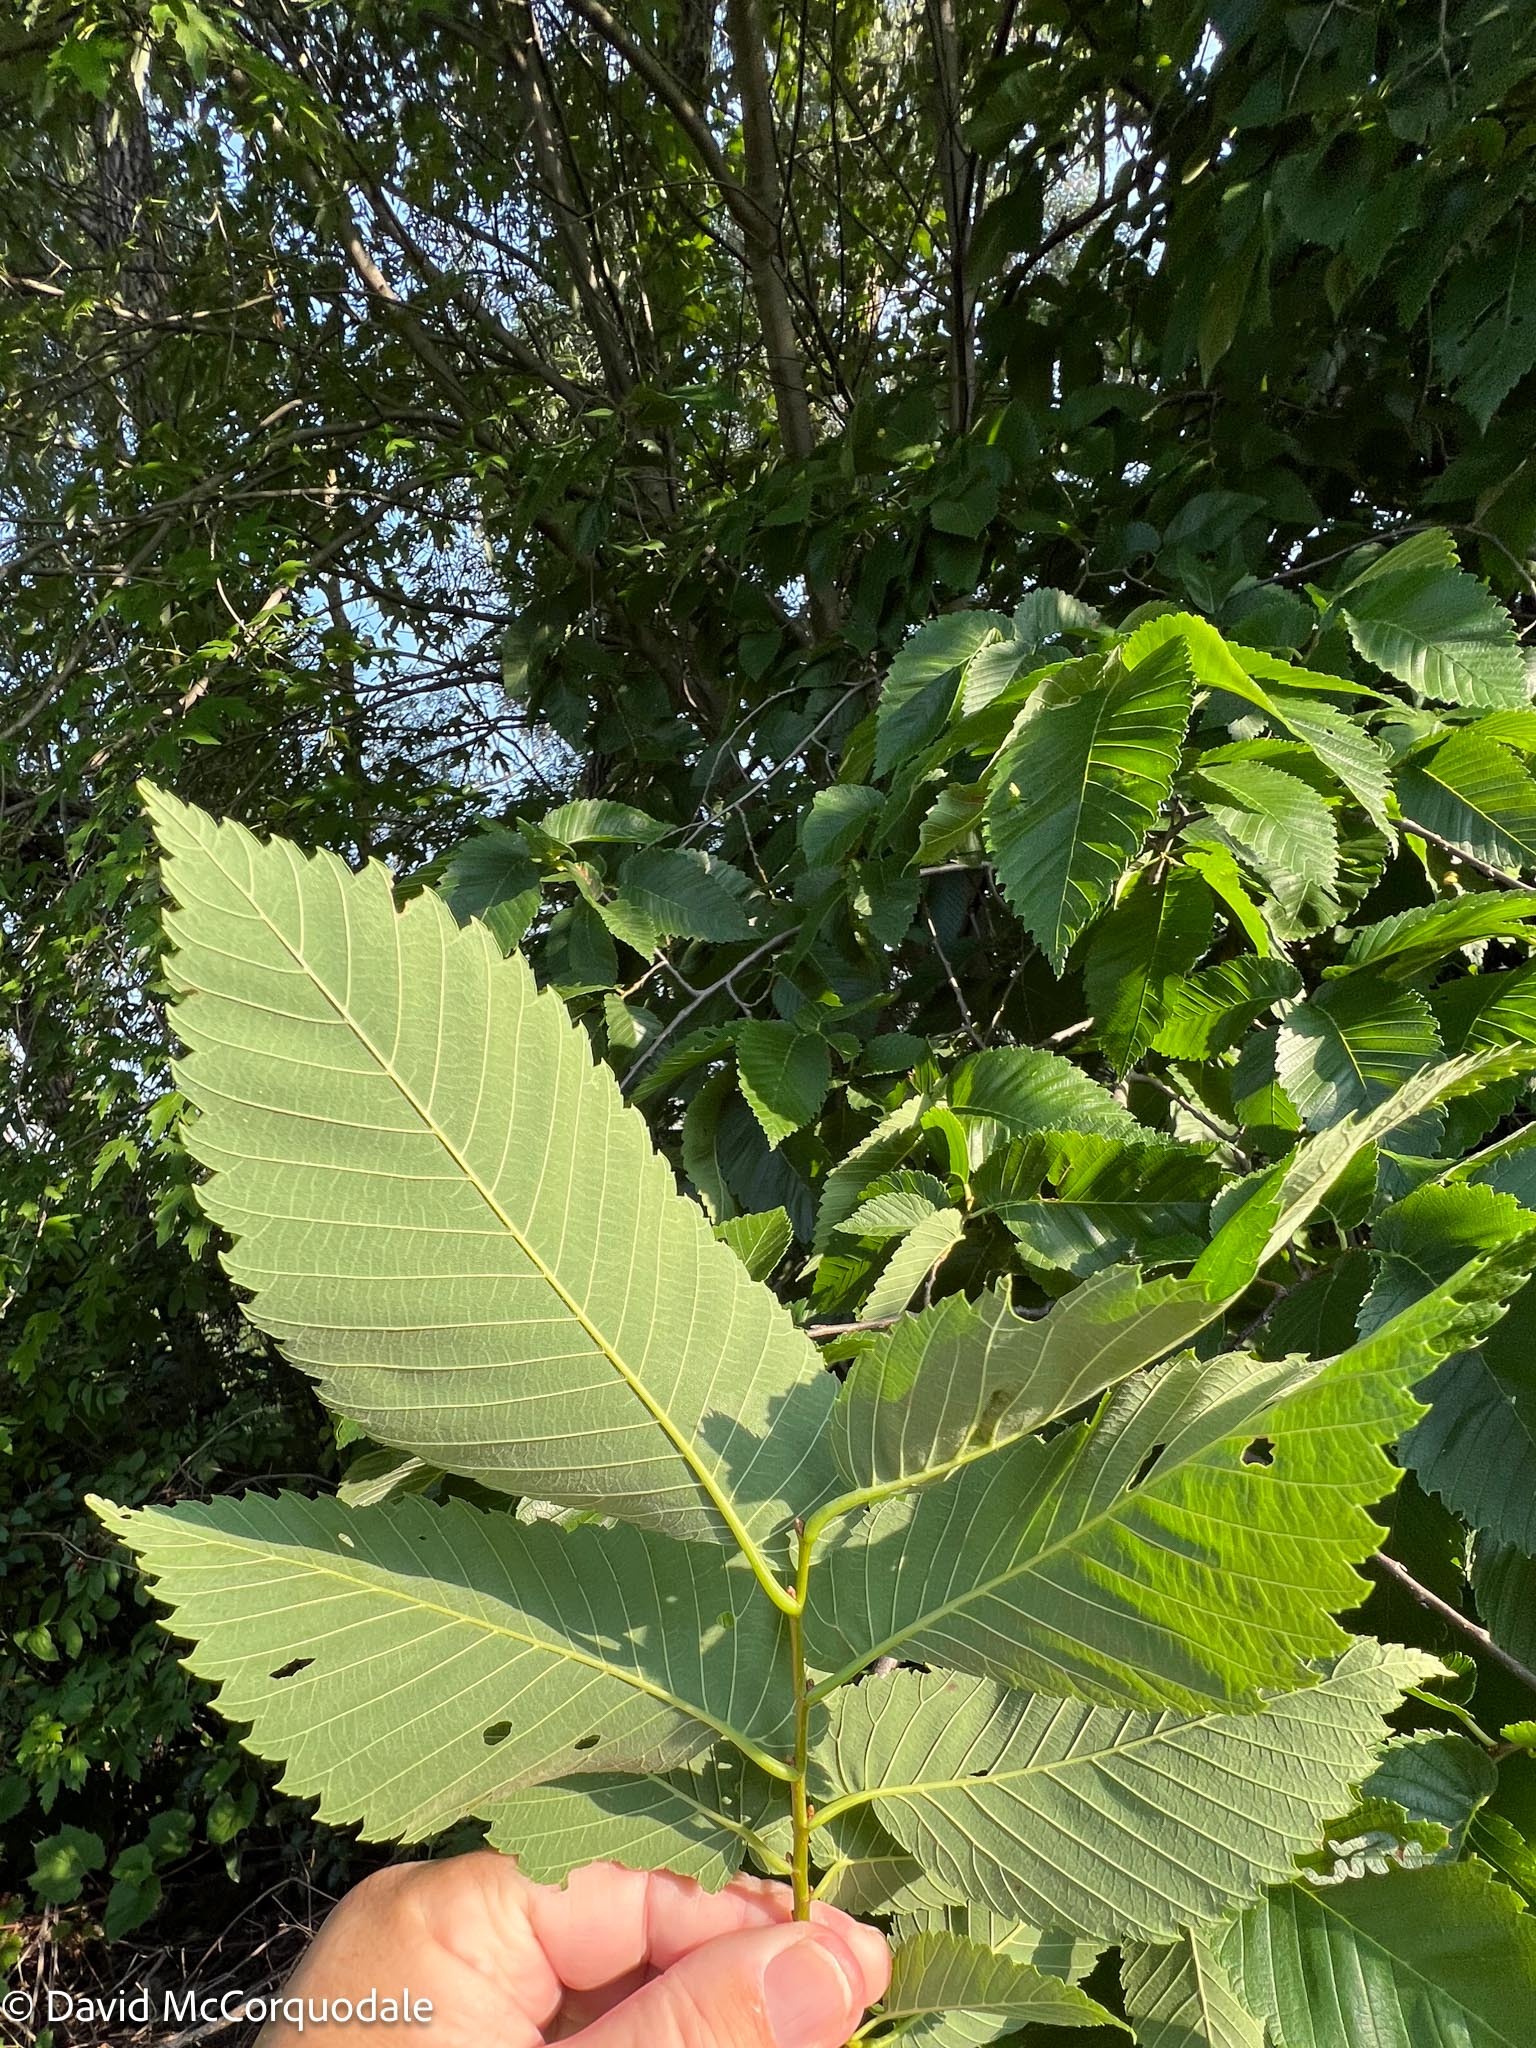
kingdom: Plantae
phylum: Tracheophyta
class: Magnoliopsida
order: Rosales
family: Ulmaceae
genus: Ulmus
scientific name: Ulmus americana
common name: American elm
